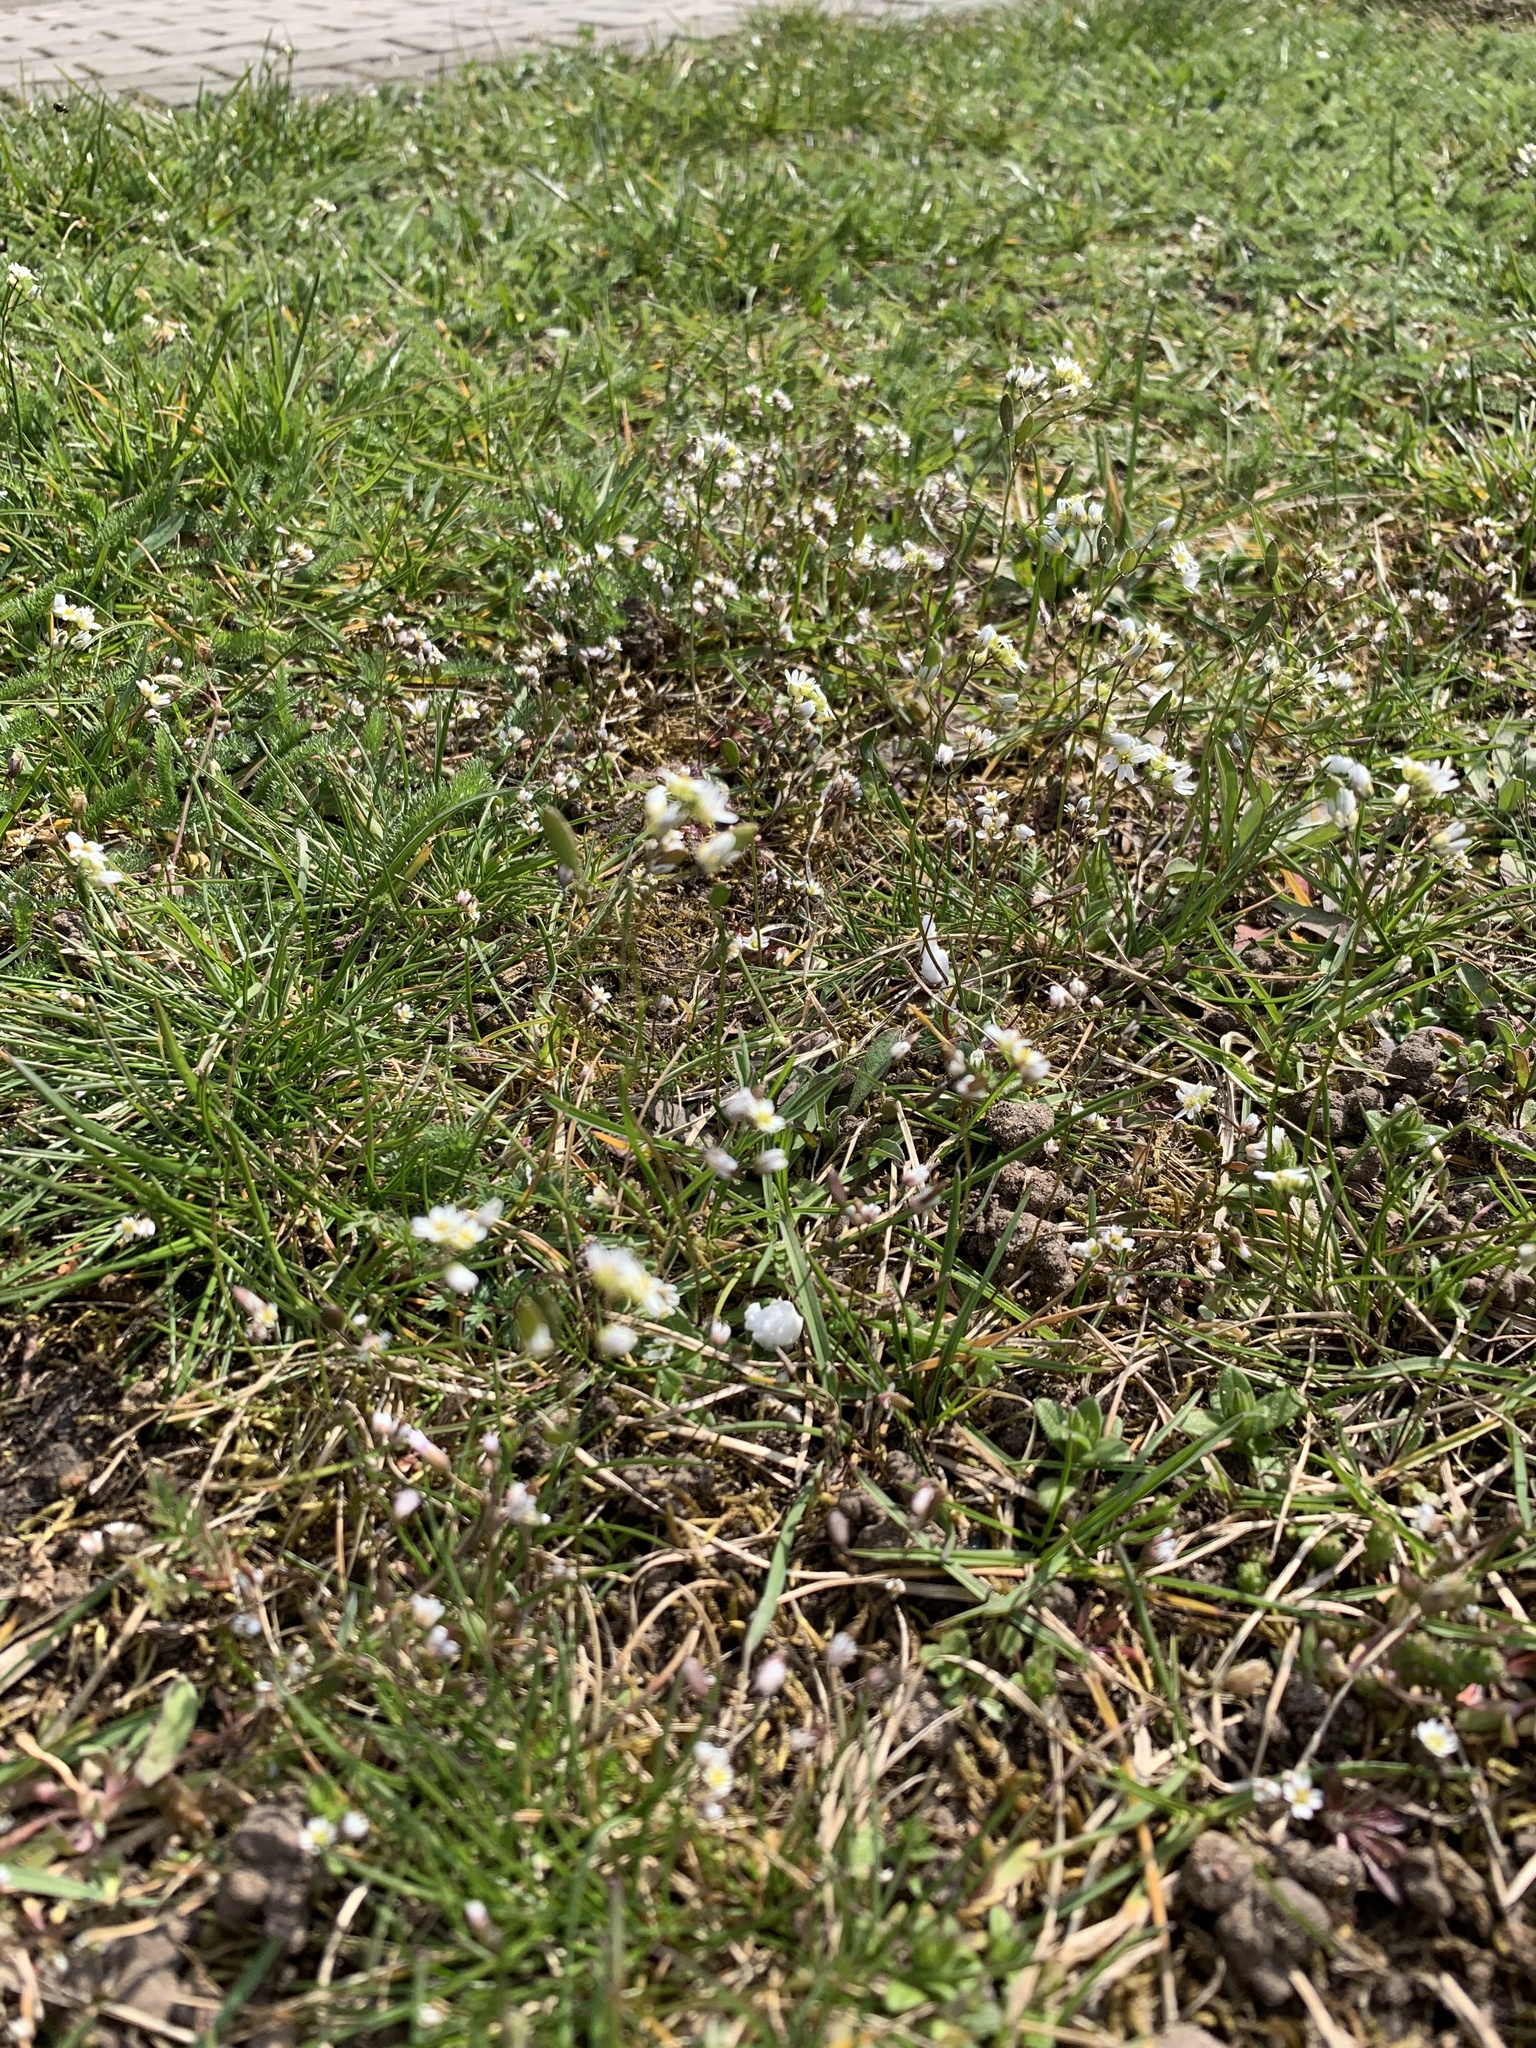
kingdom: Plantae
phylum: Tracheophyta
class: Magnoliopsida
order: Brassicales
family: Brassicaceae
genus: Draba
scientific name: Draba verna
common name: Spring draba
